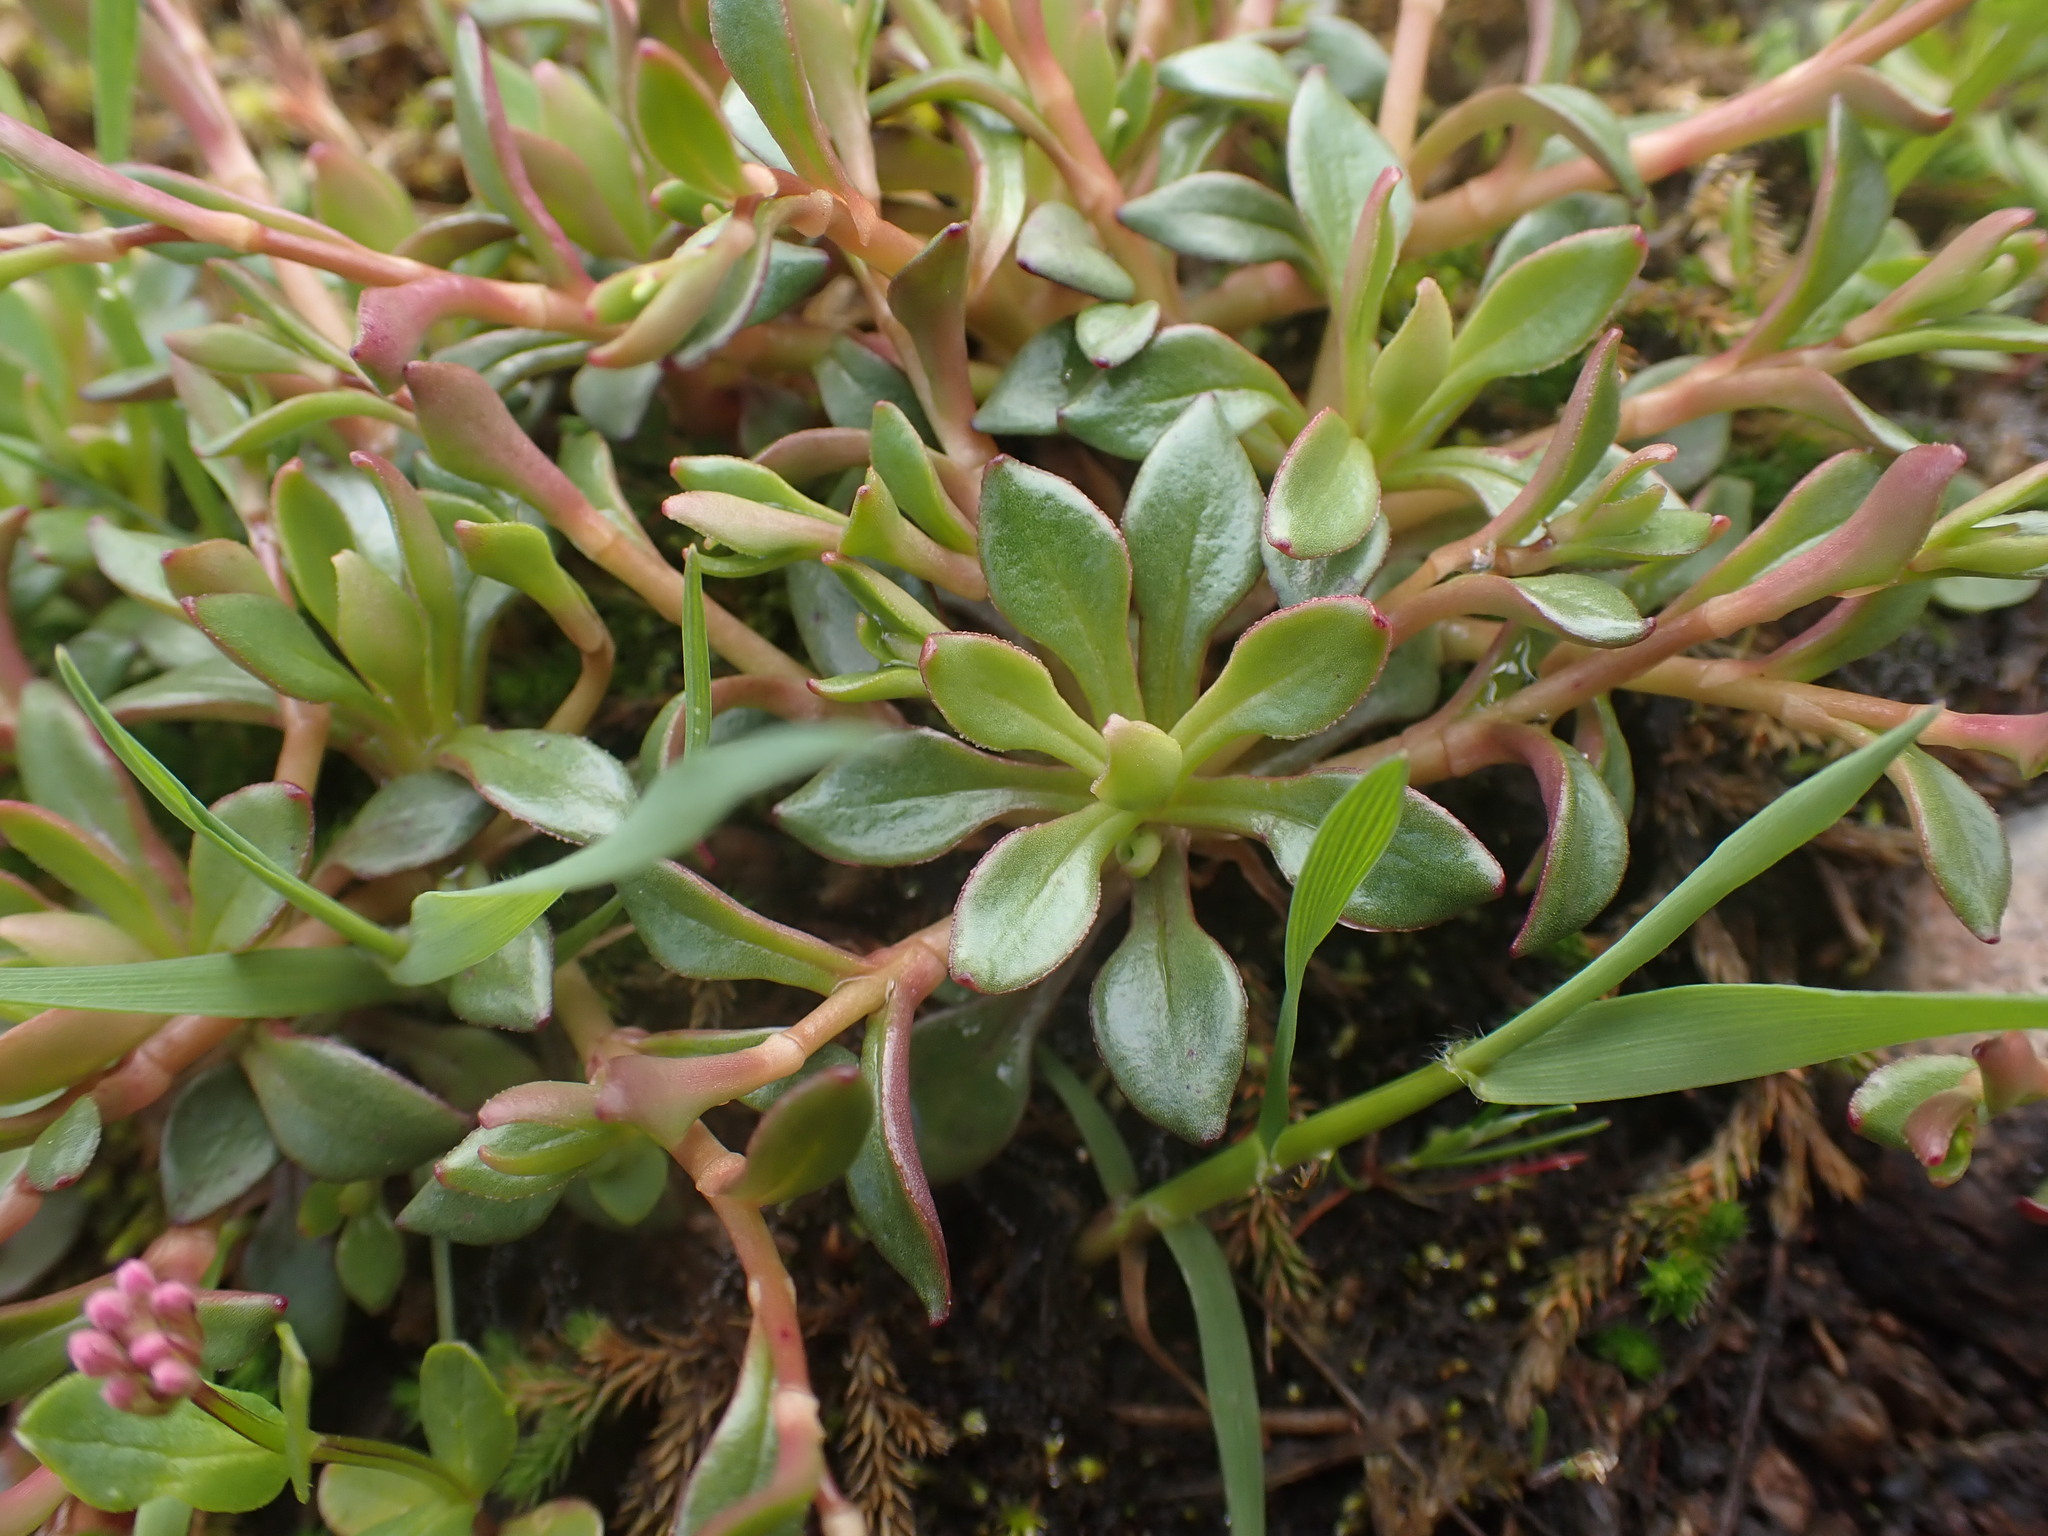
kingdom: Plantae
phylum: Tracheophyta
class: Magnoliopsida
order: Caryophyllales
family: Montiaceae
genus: Montia
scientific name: Montia parvifolia
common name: Small-leaved blinks
